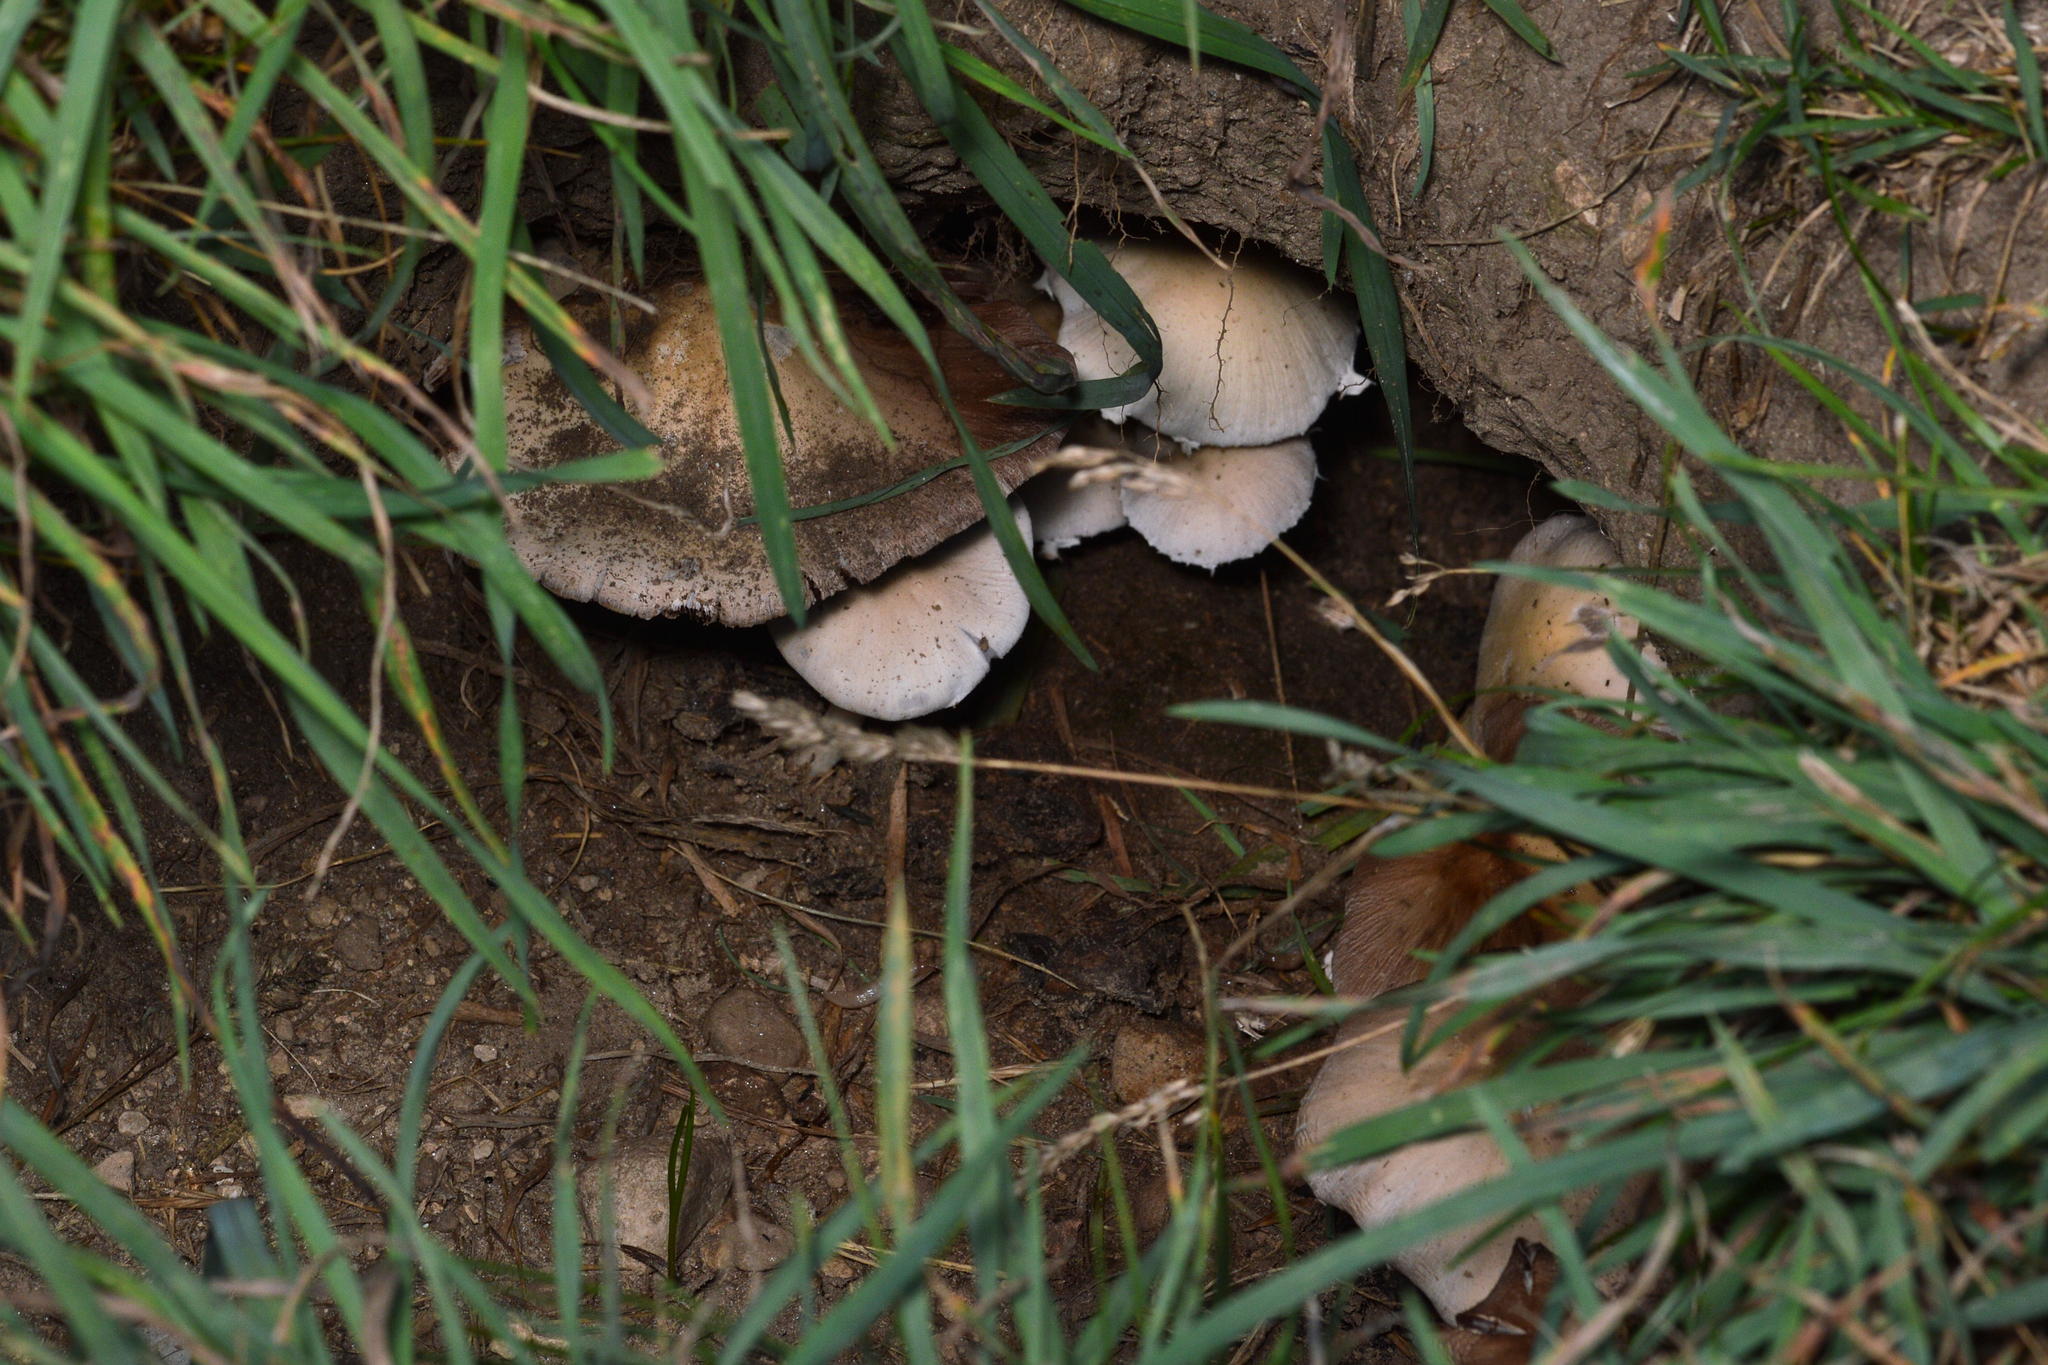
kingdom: Animalia
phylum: Chordata
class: Mammalia
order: Rodentia
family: Sciuridae
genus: Marmota
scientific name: Marmota monax
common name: Groundhog
